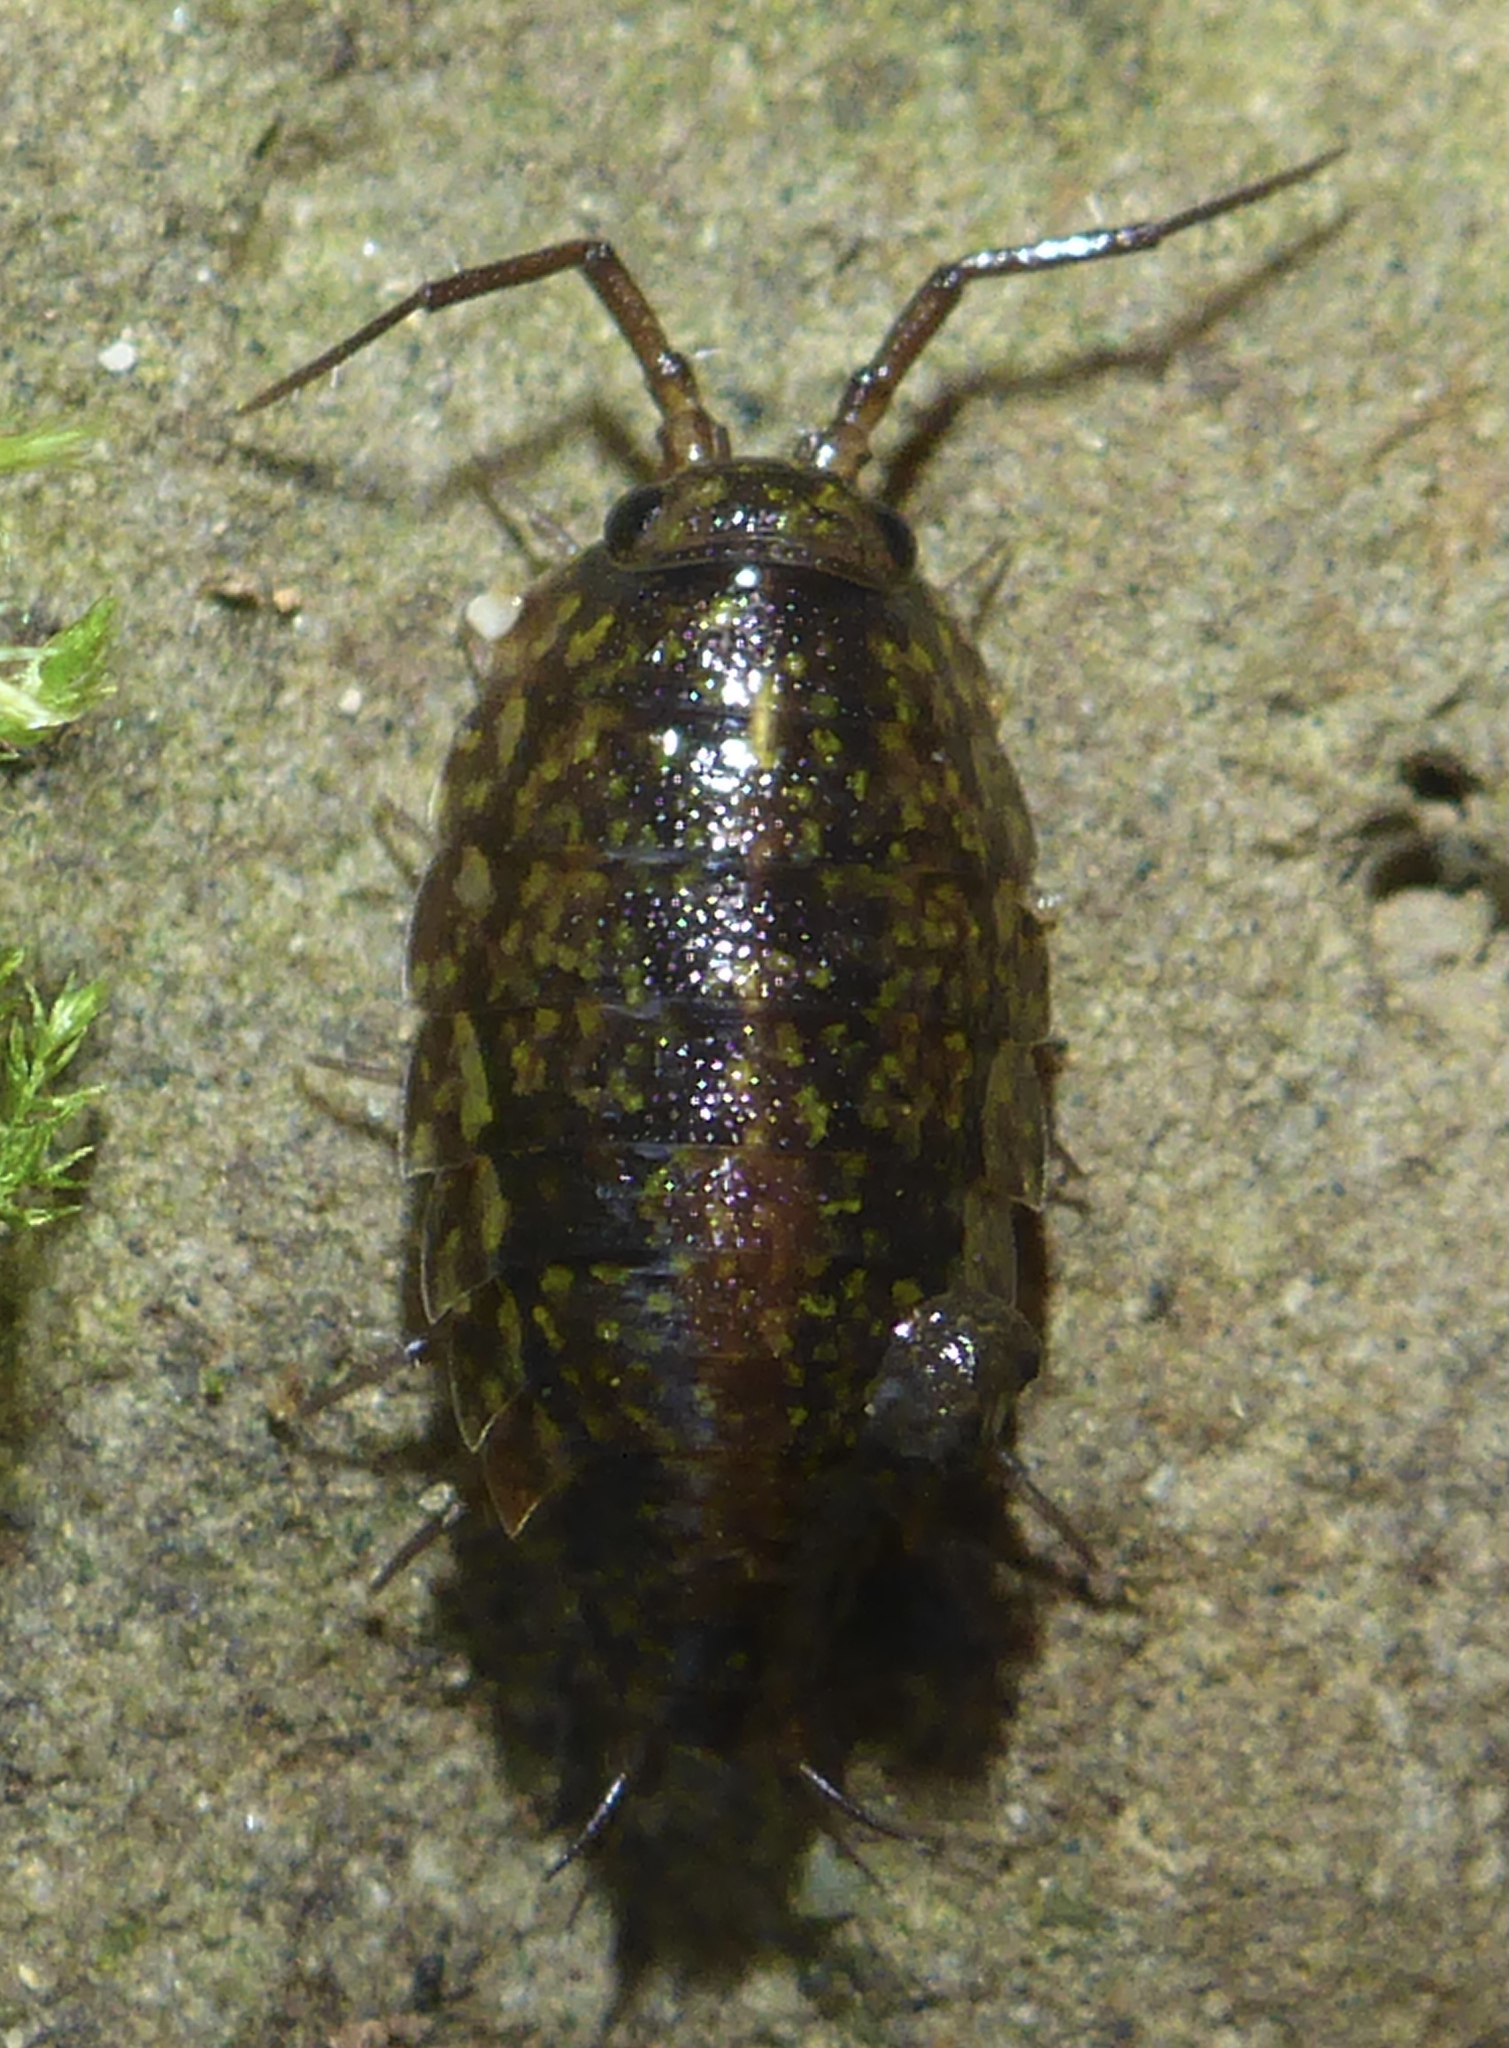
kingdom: Animalia
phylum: Arthropoda
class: Malacostraca
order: Isopoda
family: Ligiidae
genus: Ligidium
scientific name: Ligidium latum
